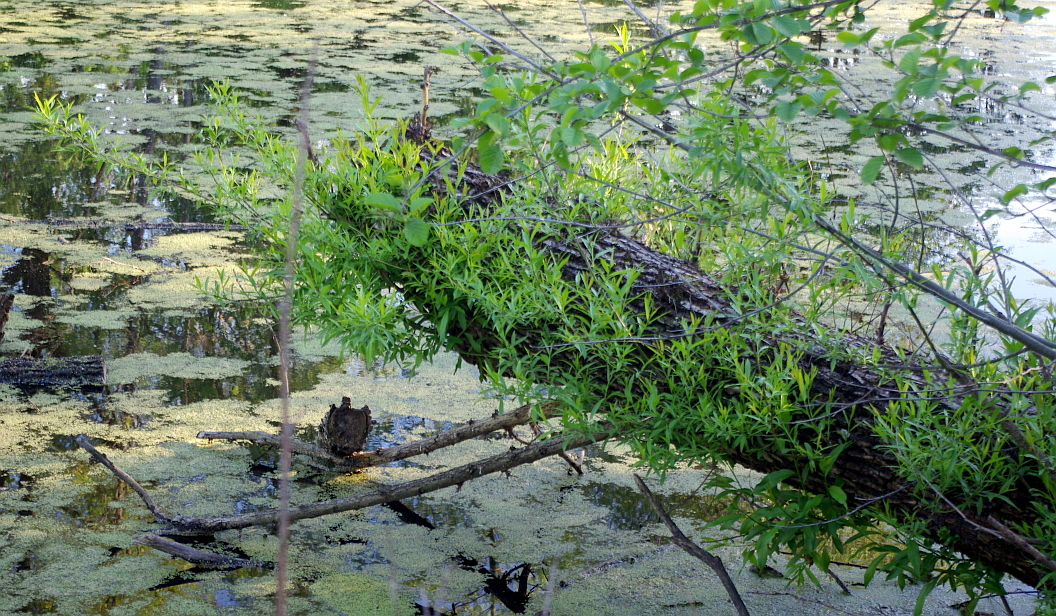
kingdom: Plantae
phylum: Tracheophyta
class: Magnoliopsida
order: Malpighiales
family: Salicaceae
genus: Salix
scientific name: Salix fragilis
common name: Crack willow
